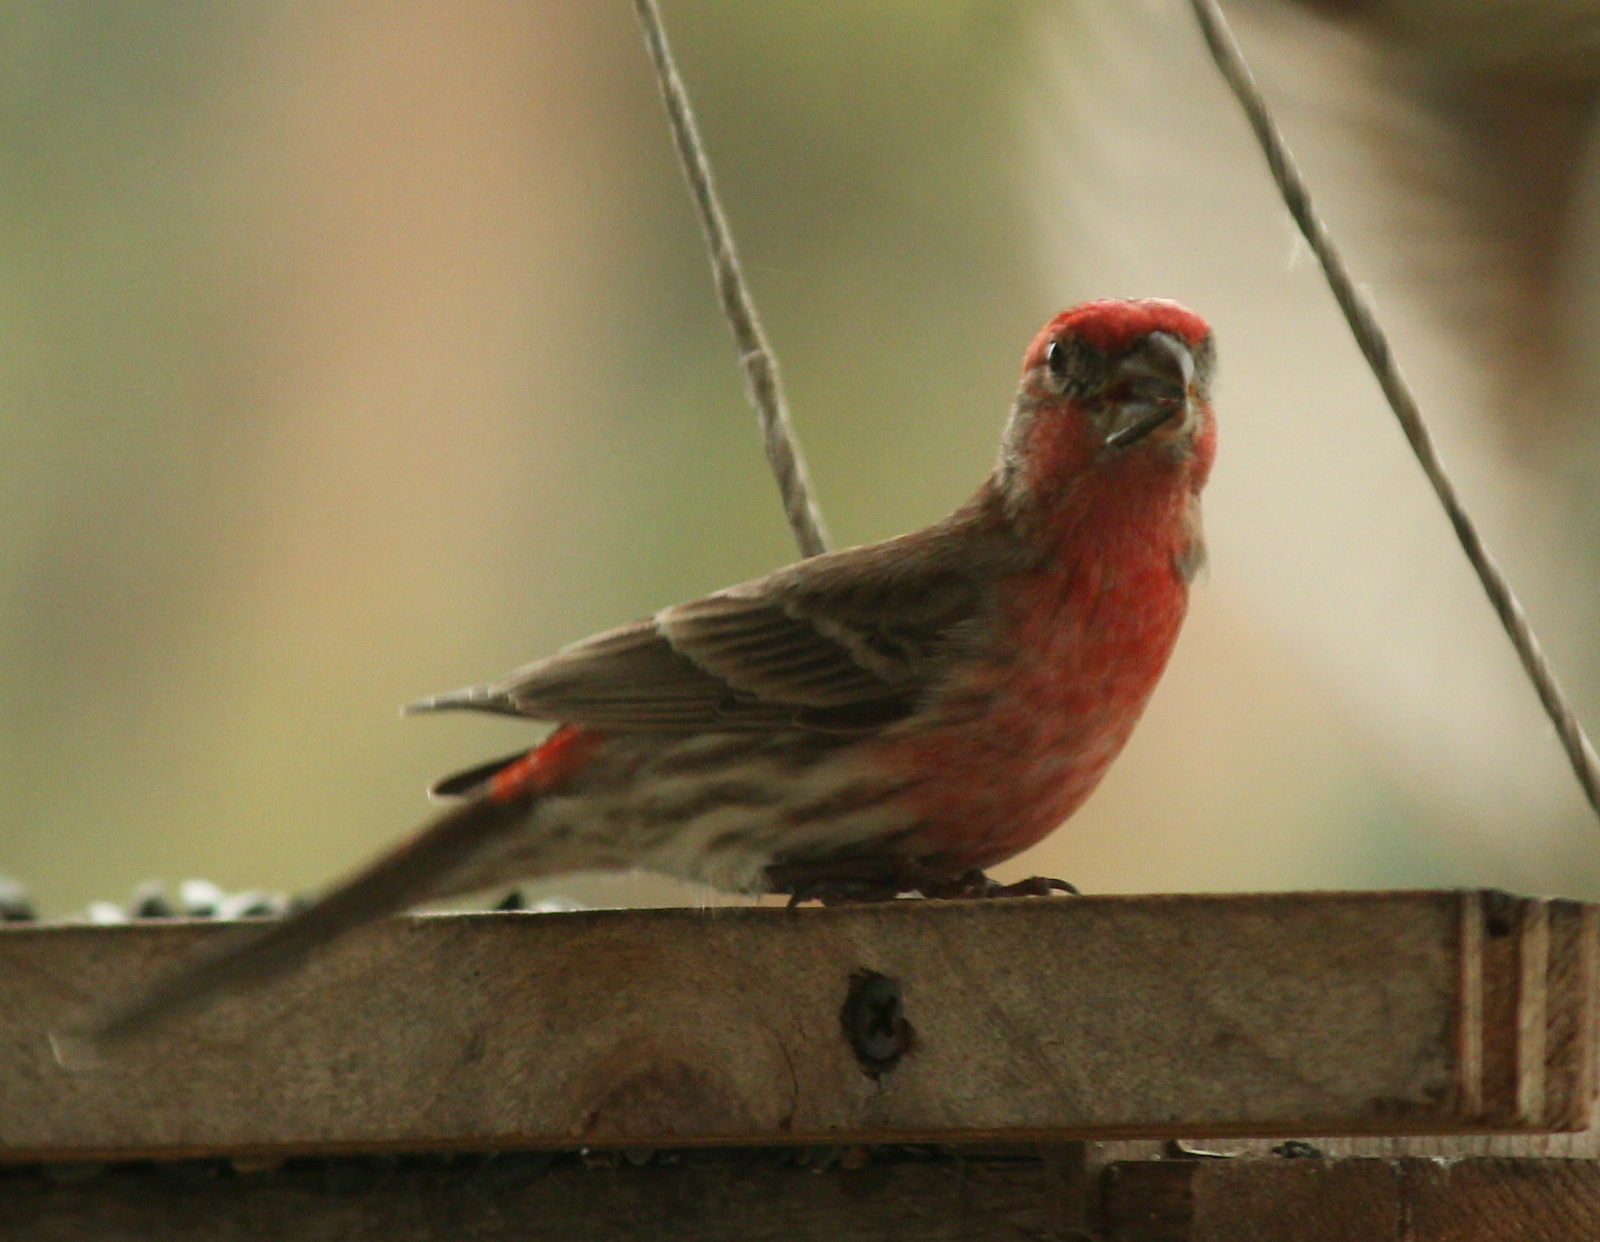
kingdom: Animalia
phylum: Chordata
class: Aves
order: Passeriformes
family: Fringillidae
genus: Haemorhous
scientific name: Haemorhous mexicanus
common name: House finch
